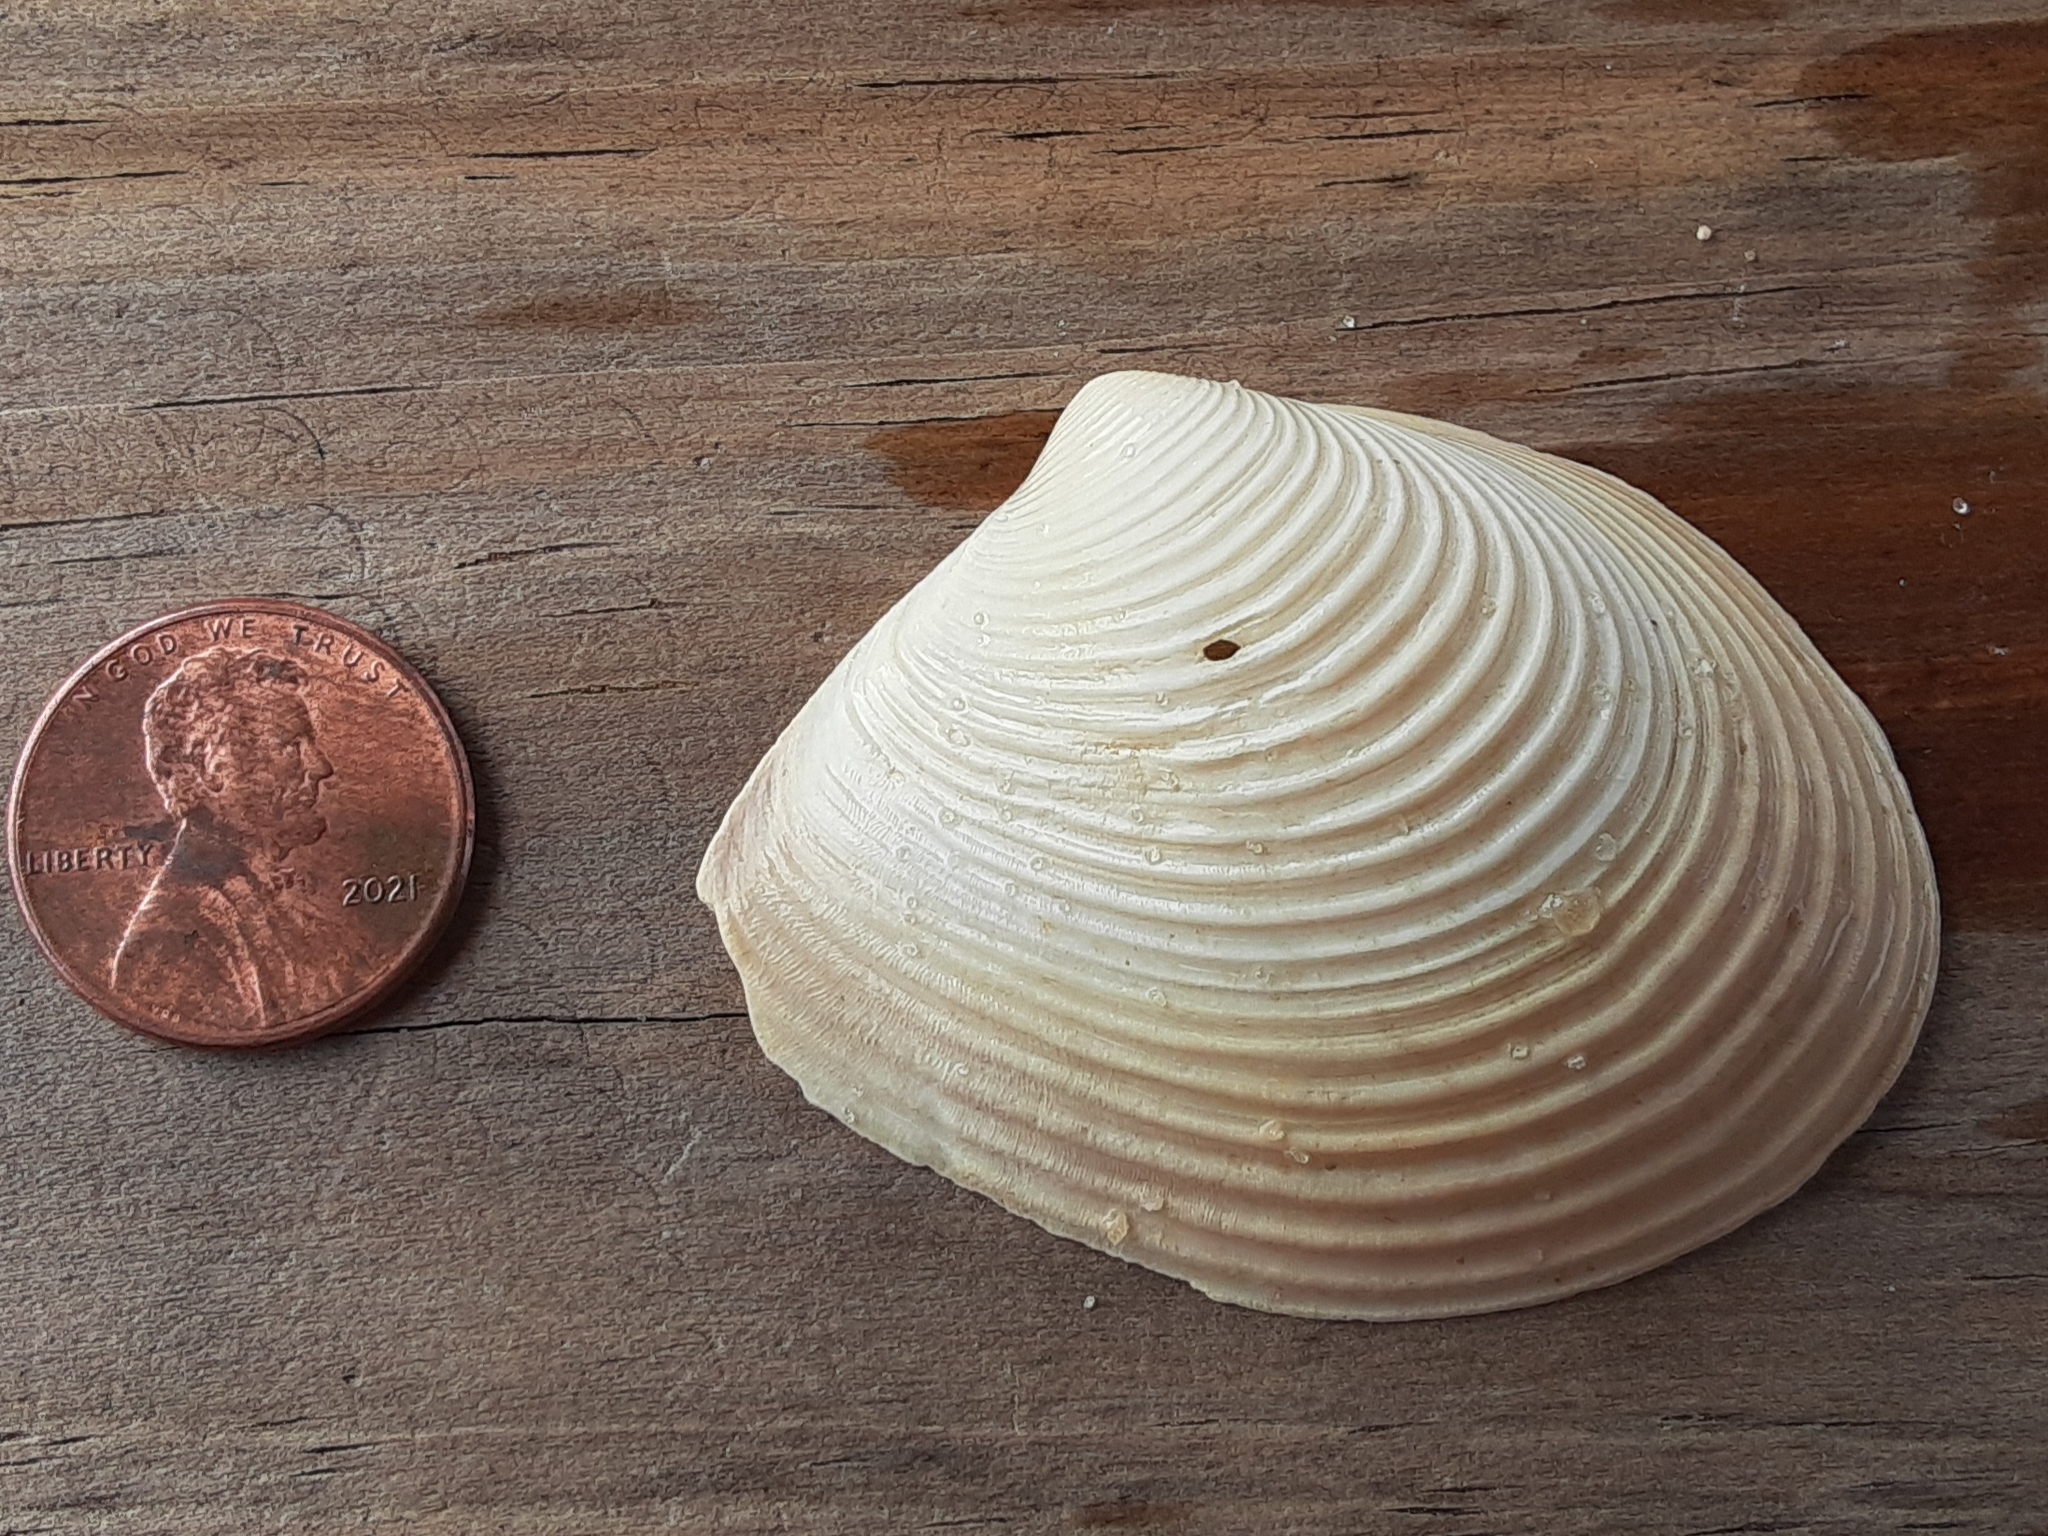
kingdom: Animalia
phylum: Mollusca
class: Bivalvia
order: Venerida
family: Anatinellidae
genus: Raeta
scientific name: Raeta plicatella
